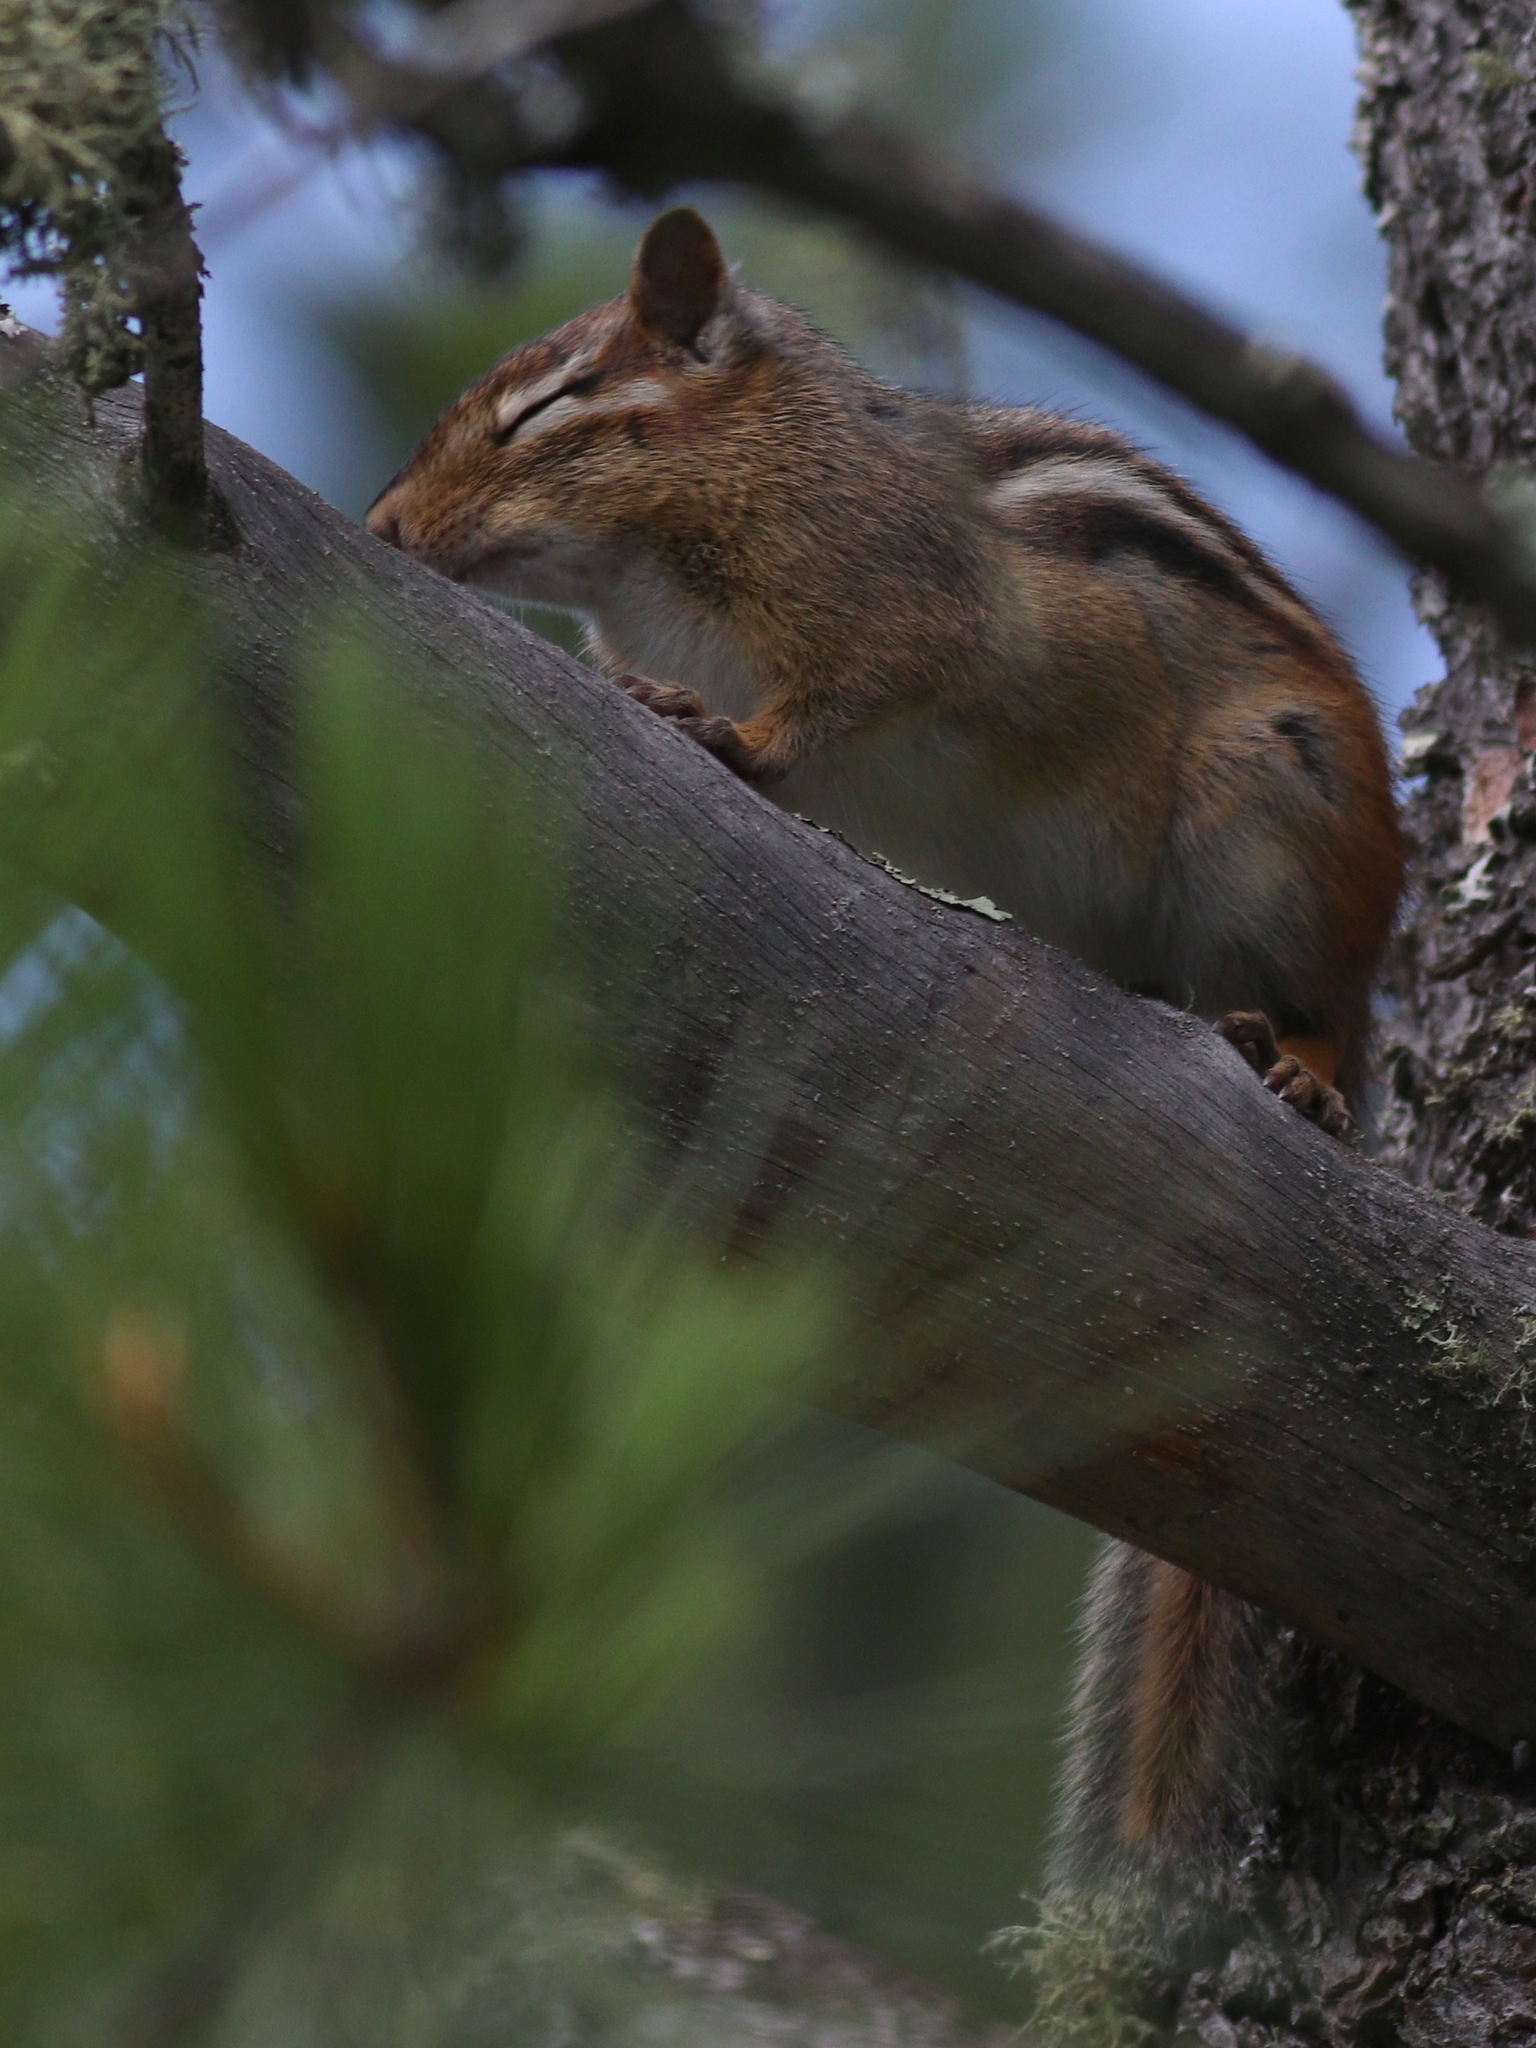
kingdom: Animalia
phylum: Chordata
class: Mammalia
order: Rodentia
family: Sciuridae
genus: Tamias
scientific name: Tamias striatus
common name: Eastern chipmunk
